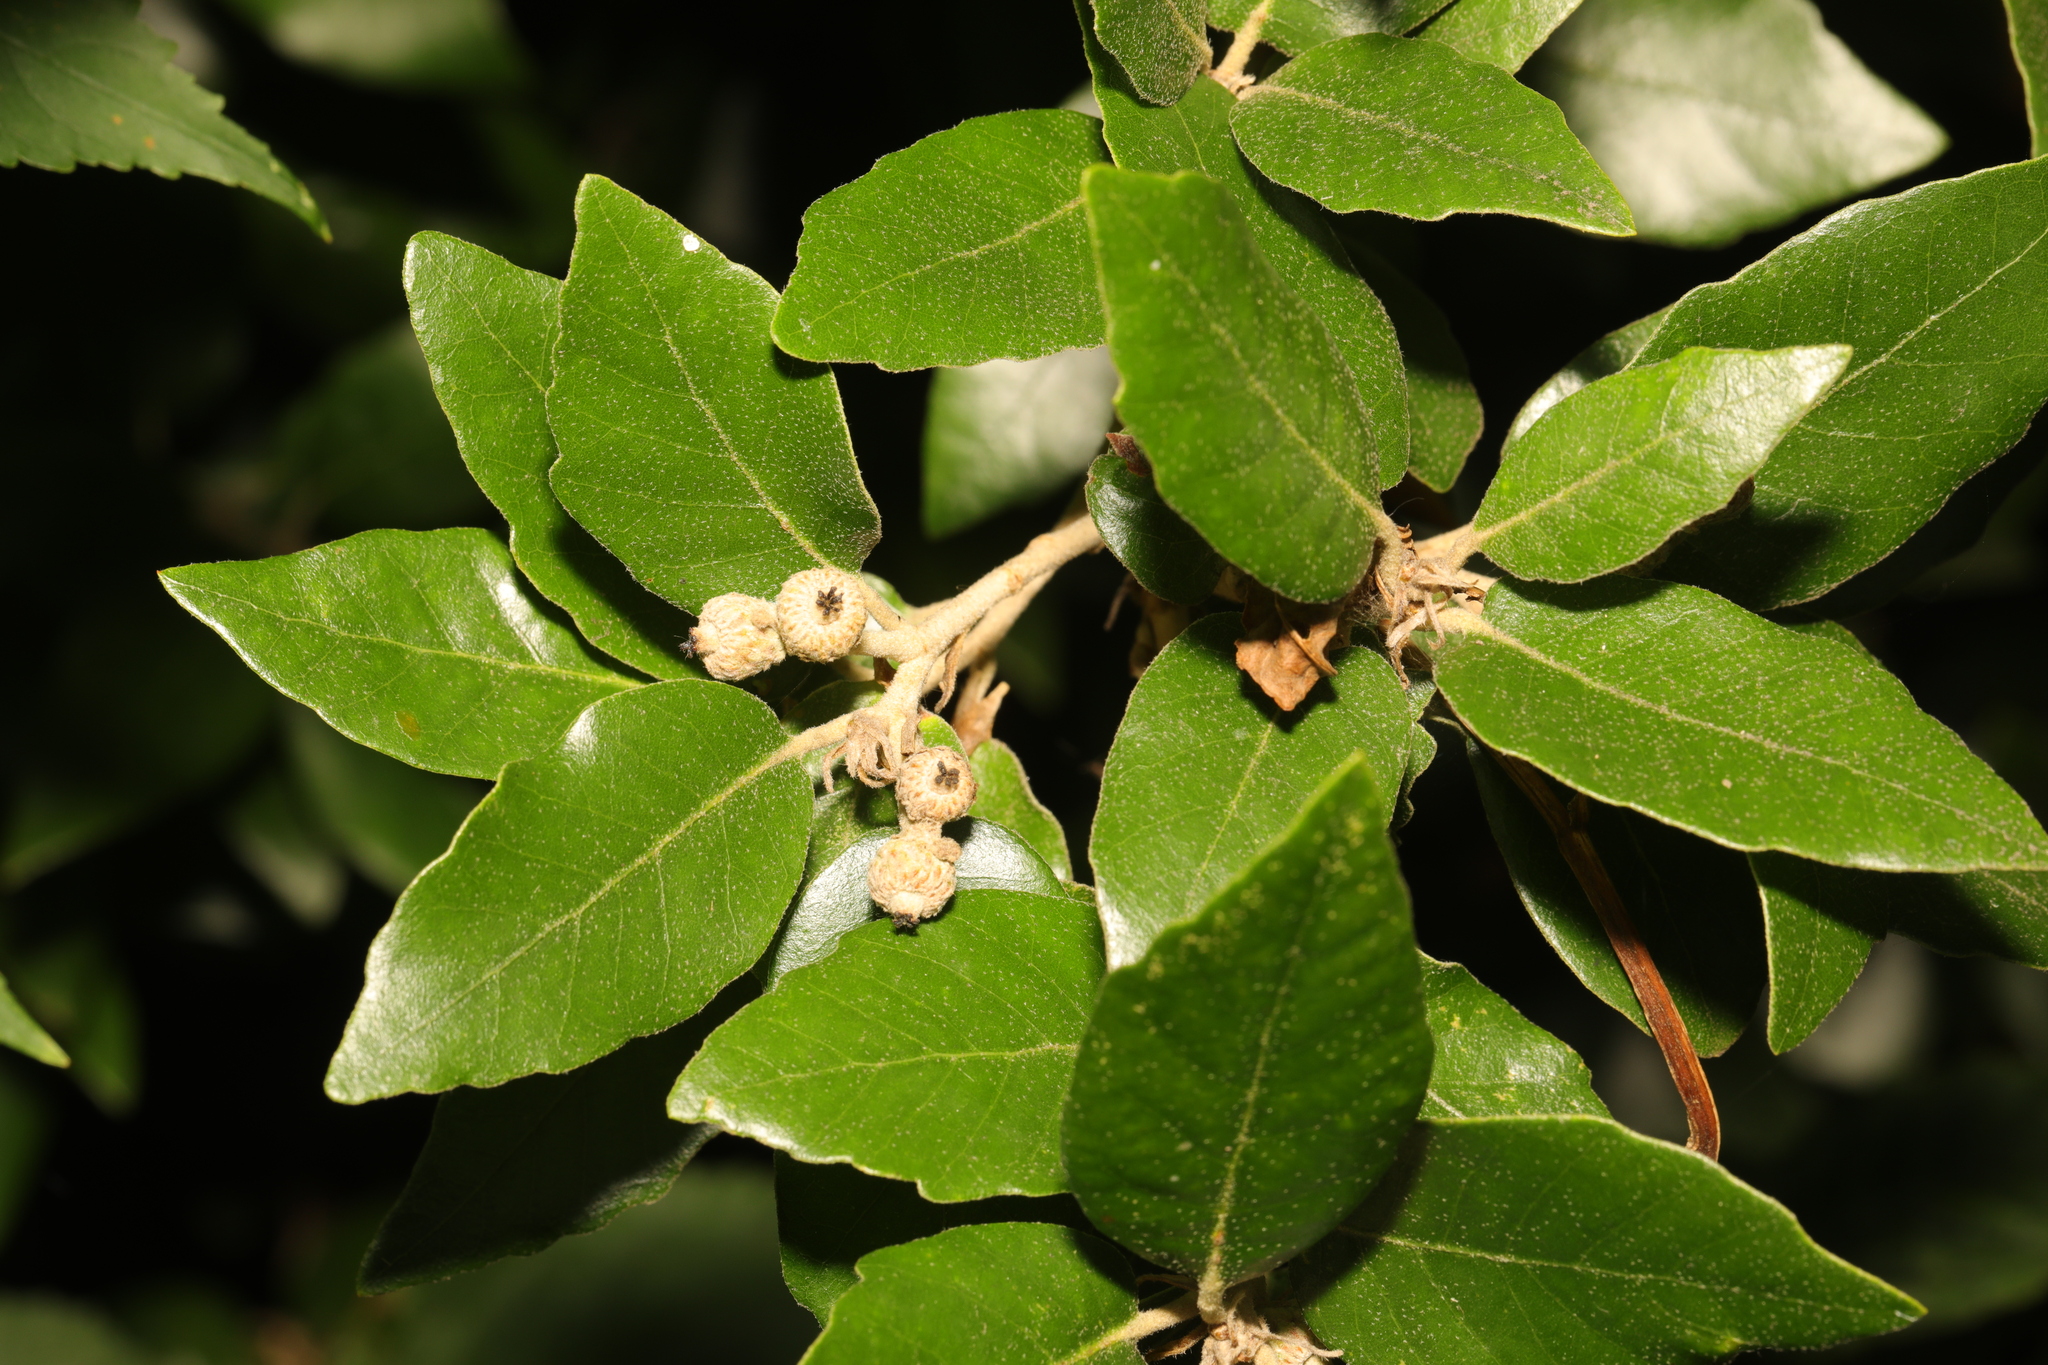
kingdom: Plantae
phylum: Tracheophyta
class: Magnoliopsida
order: Fagales
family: Fagaceae
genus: Quercus
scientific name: Quercus ilex
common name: Evergreen oak
